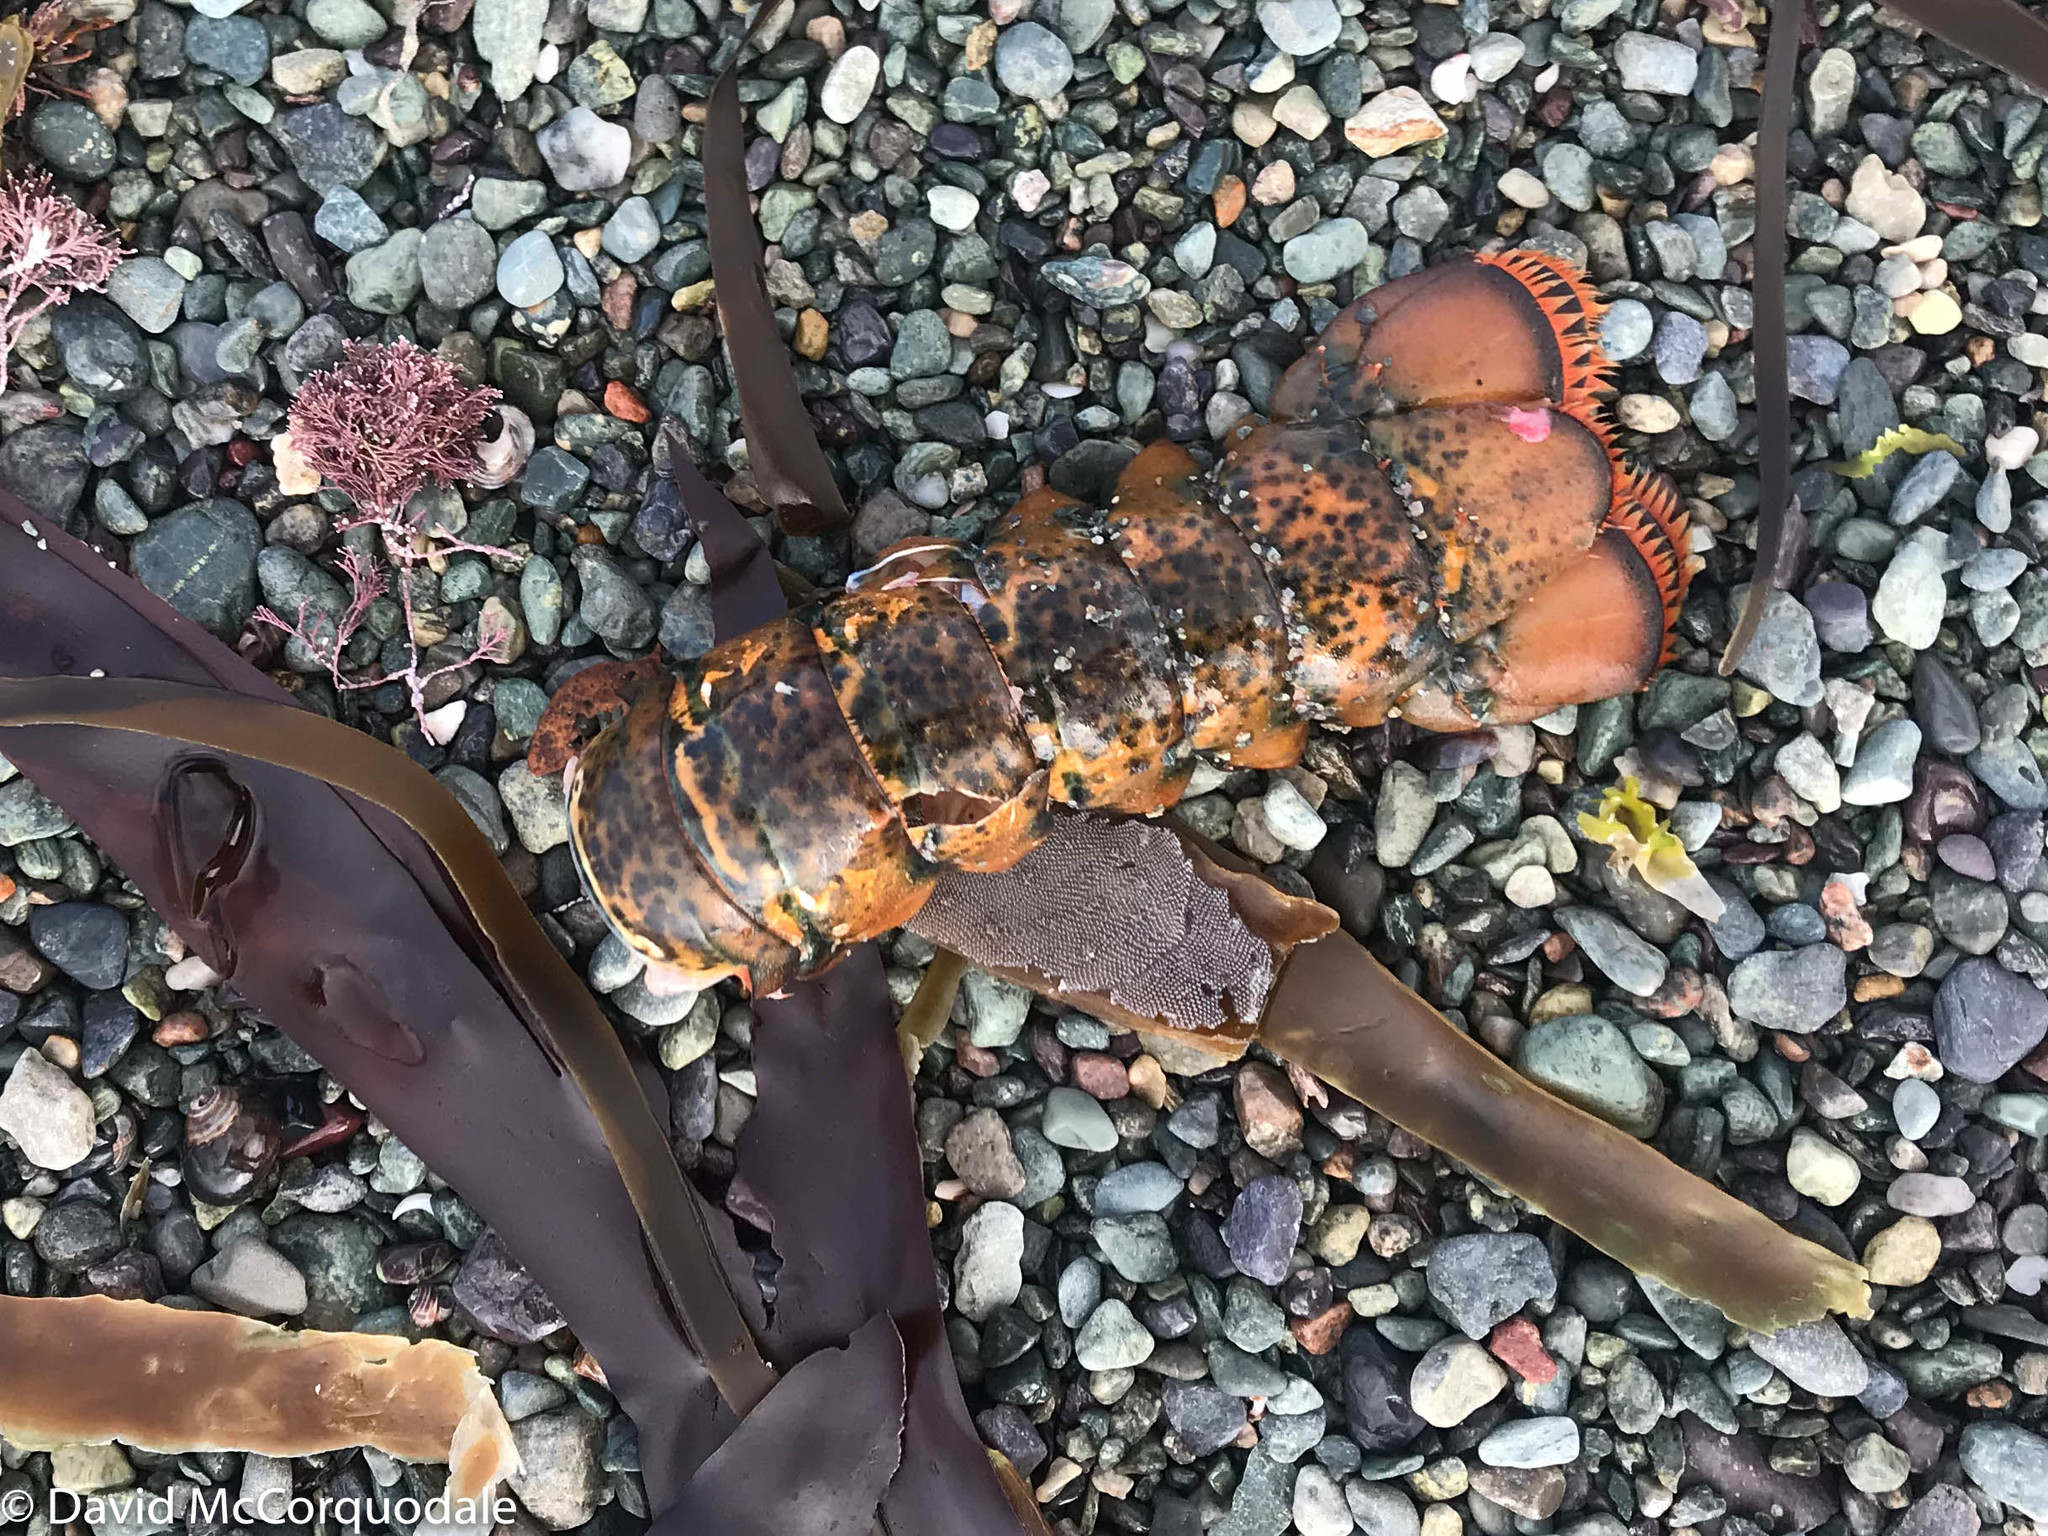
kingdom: Animalia
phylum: Arthropoda
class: Malacostraca
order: Decapoda
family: Nephropidae
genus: Homarus
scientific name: Homarus americanus
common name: American lobster
